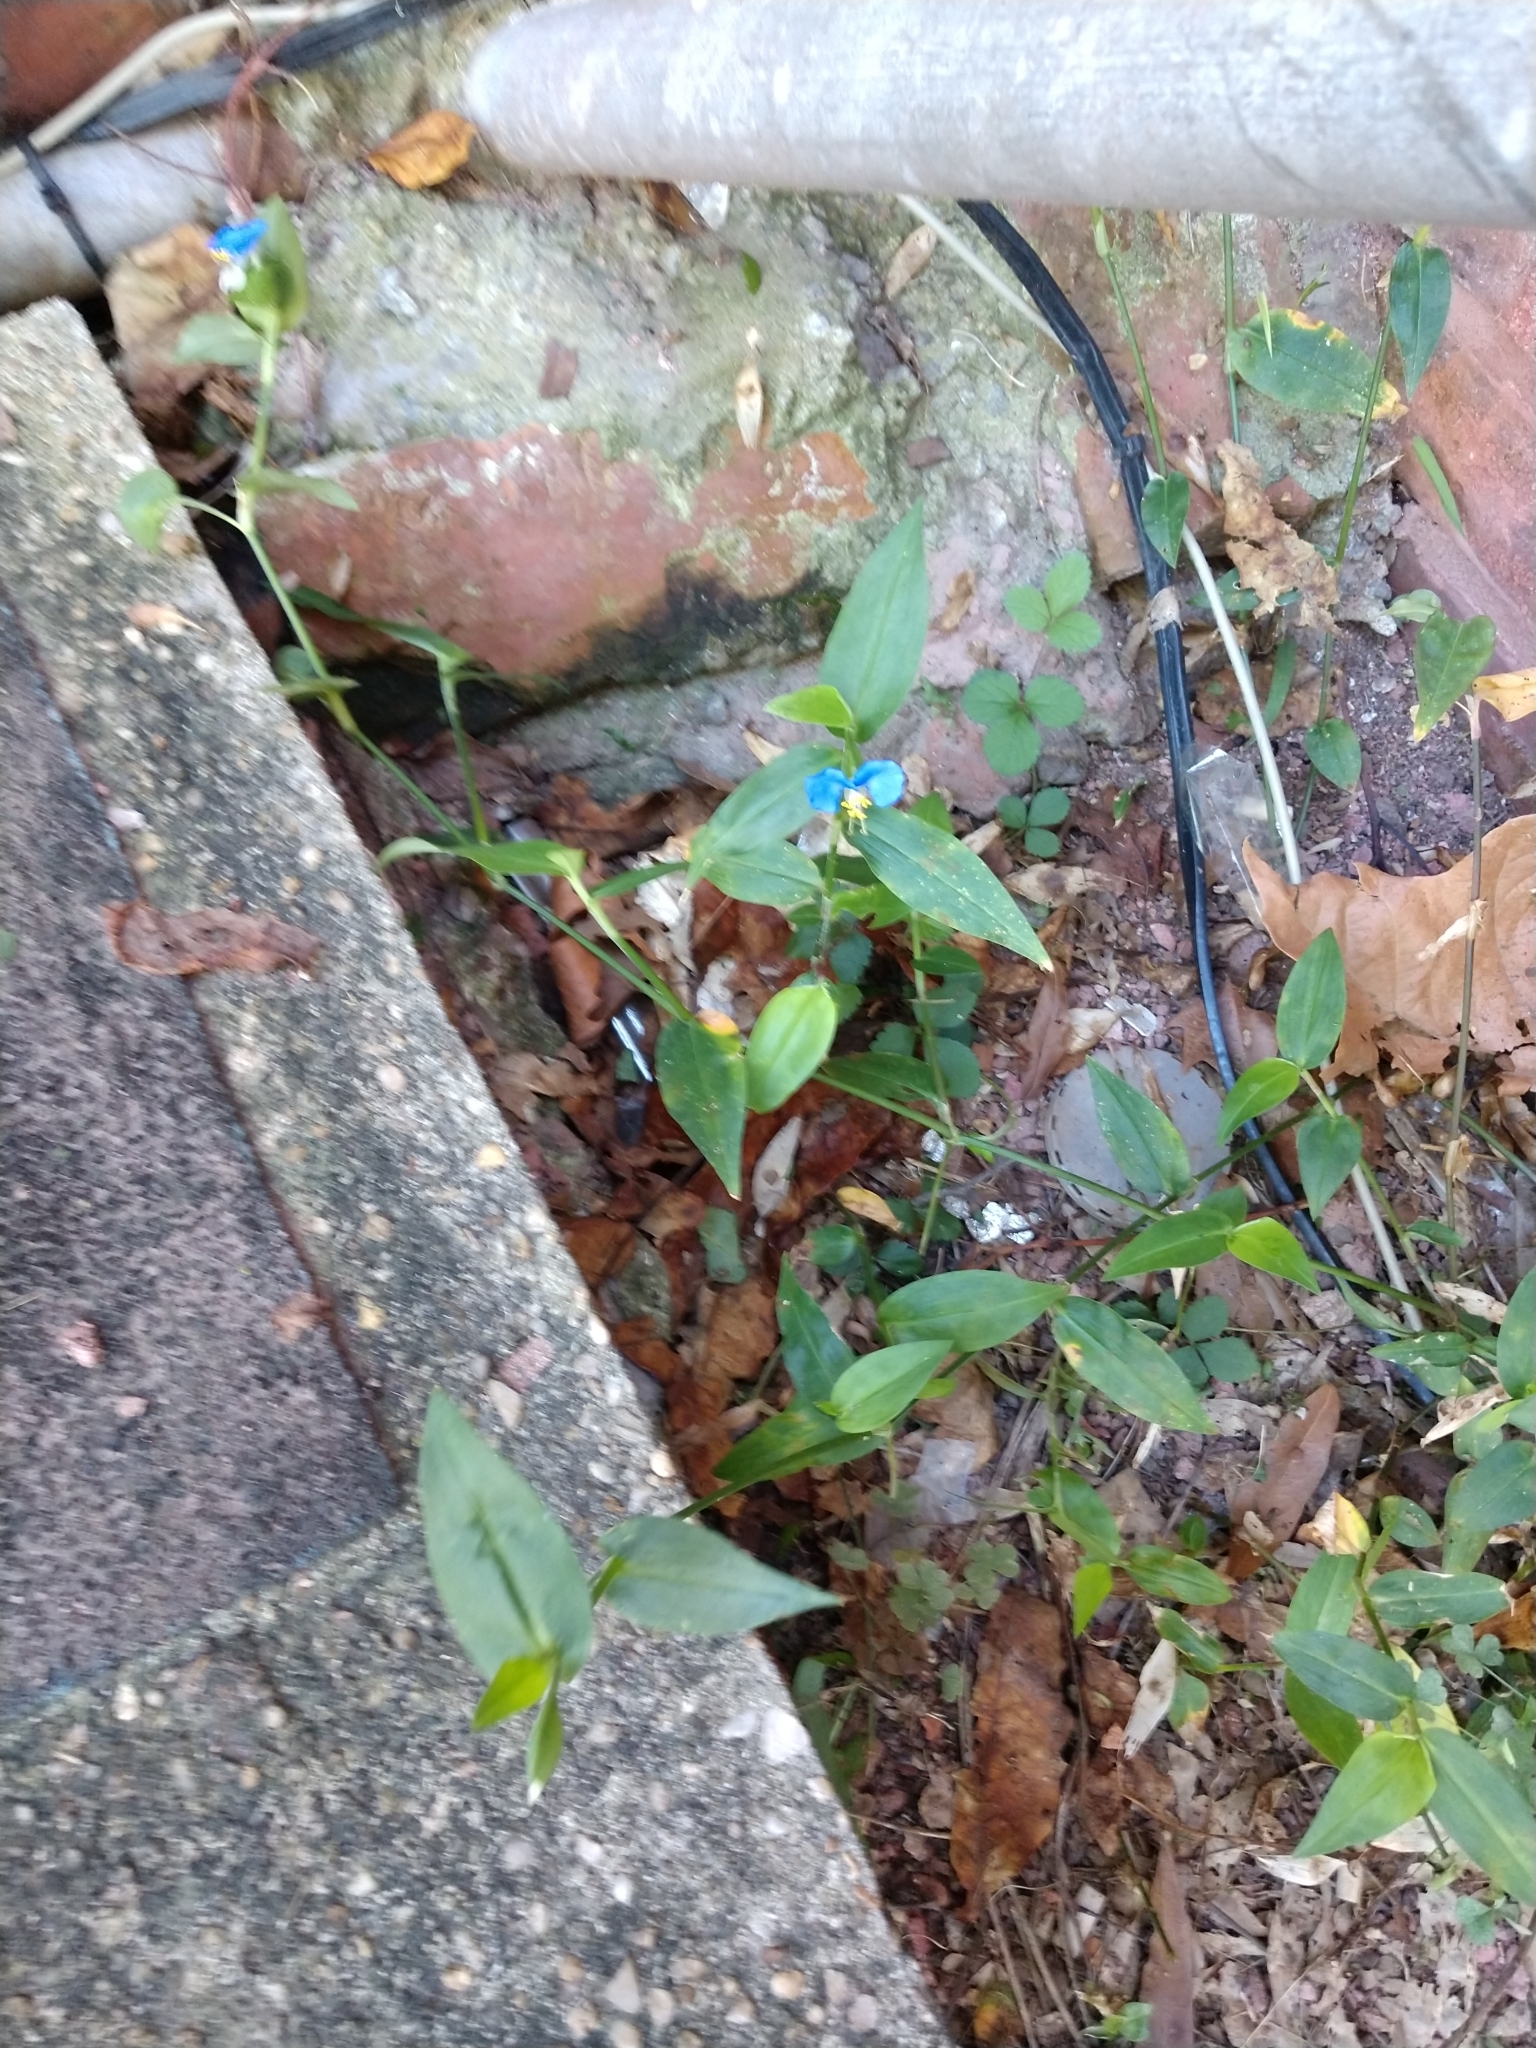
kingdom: Plantae
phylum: Tracheophyta
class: Liliopsida
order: Commelinales
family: Commelinaceae
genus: Commelina
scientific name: Commelina communis
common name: Asiatic dayflower
